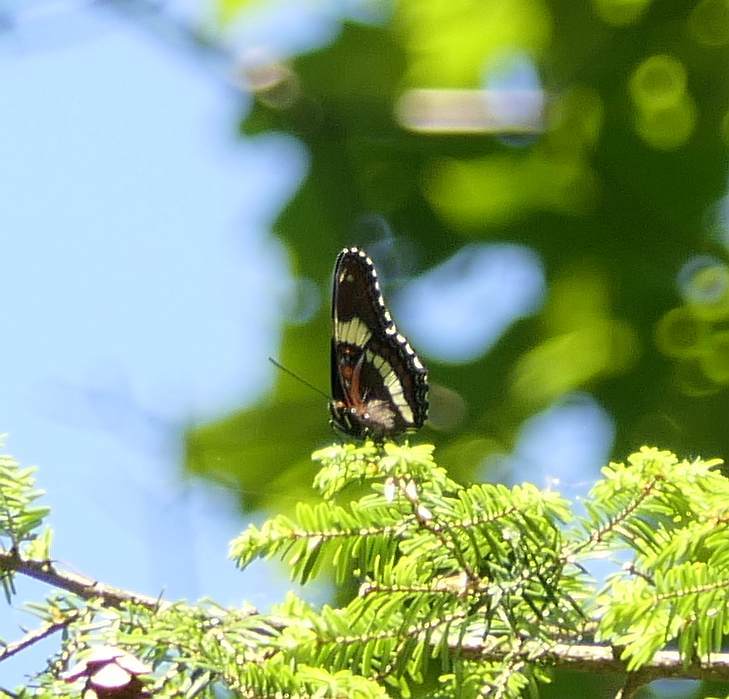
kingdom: Animalia
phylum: Arthropoda
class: Insecta
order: Lepidoptera
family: Nymphalidae
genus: Limenitis
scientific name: Limenitis arthemis
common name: Red-spotted admiral
